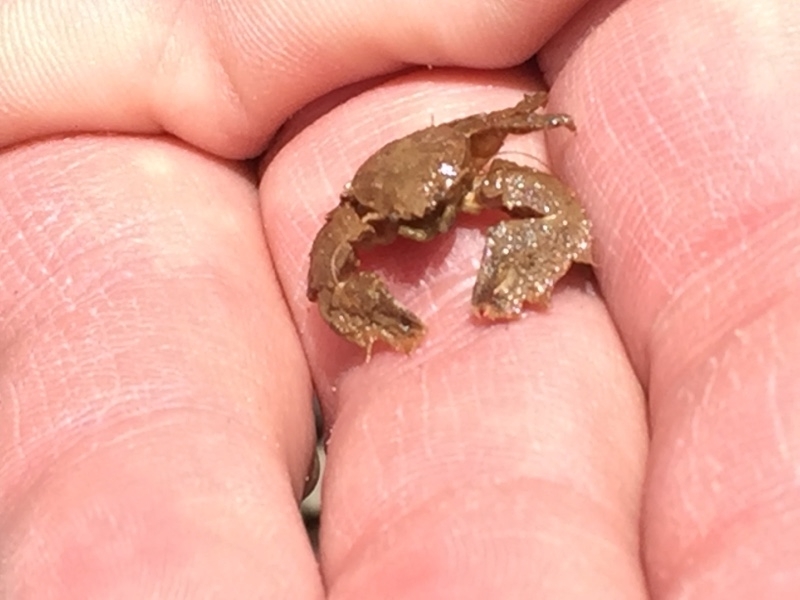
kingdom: Animalia
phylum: Arthropoda
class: Malacostraca
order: Decapoda
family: Porcellanidae
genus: Porcellana
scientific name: Porcellana platycheles
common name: Porcelain crab
